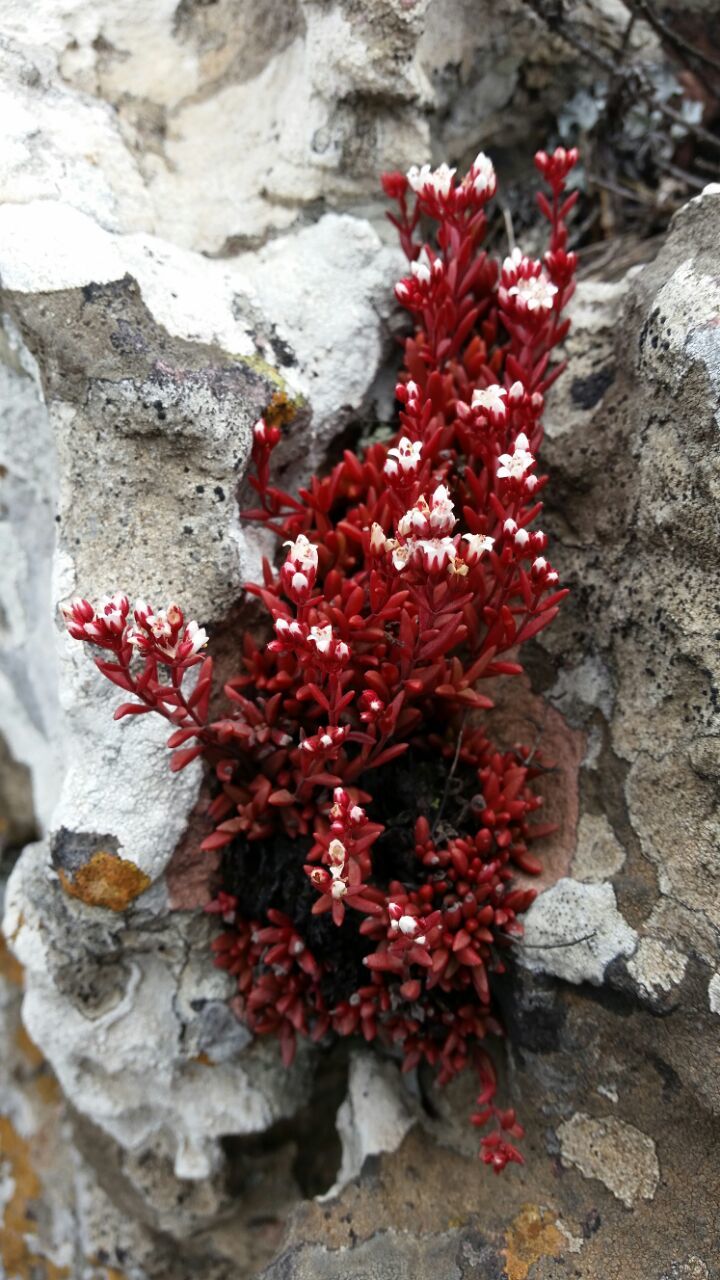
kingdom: Plantae
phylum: Tracheophyta
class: Magnoliopsida
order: Saxifragales
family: Crassulaceae
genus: Crassula
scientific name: Crassula setulosa
